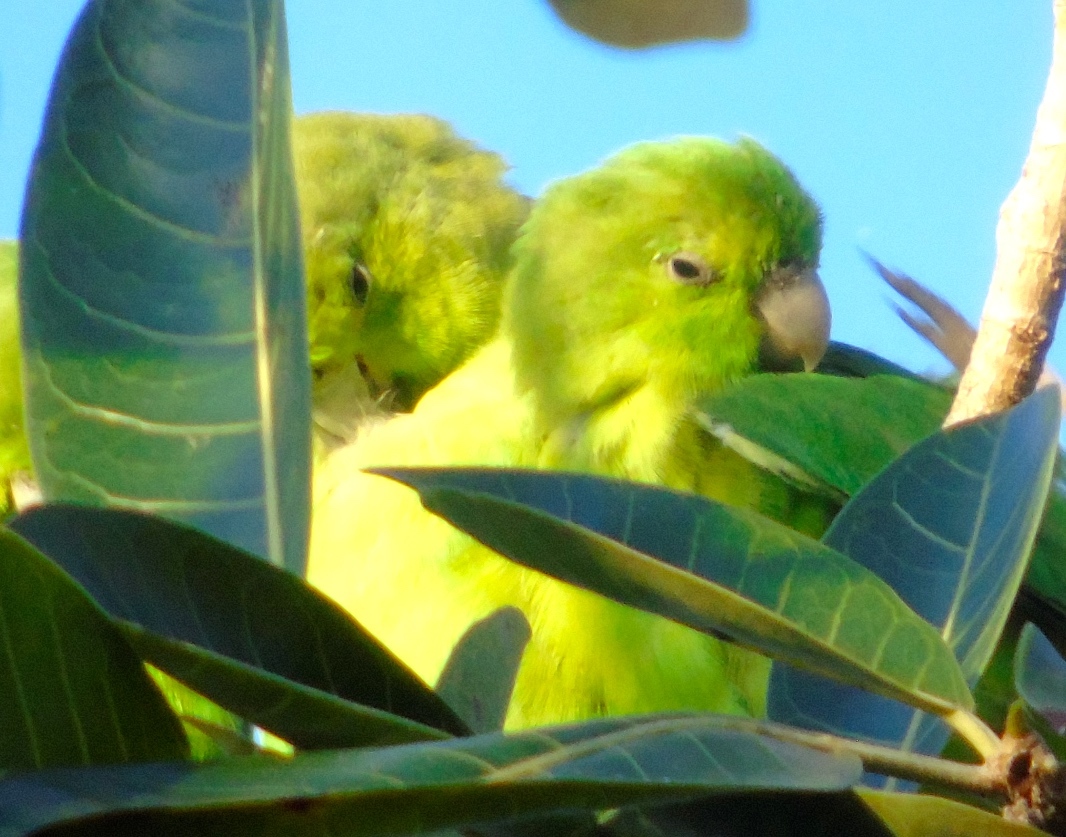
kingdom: Animalia
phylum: Chordata
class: Aves
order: Psittaciformes
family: Psittacidae
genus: Forpus
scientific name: Forpus cyanopygius
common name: Mexican parrotlet
